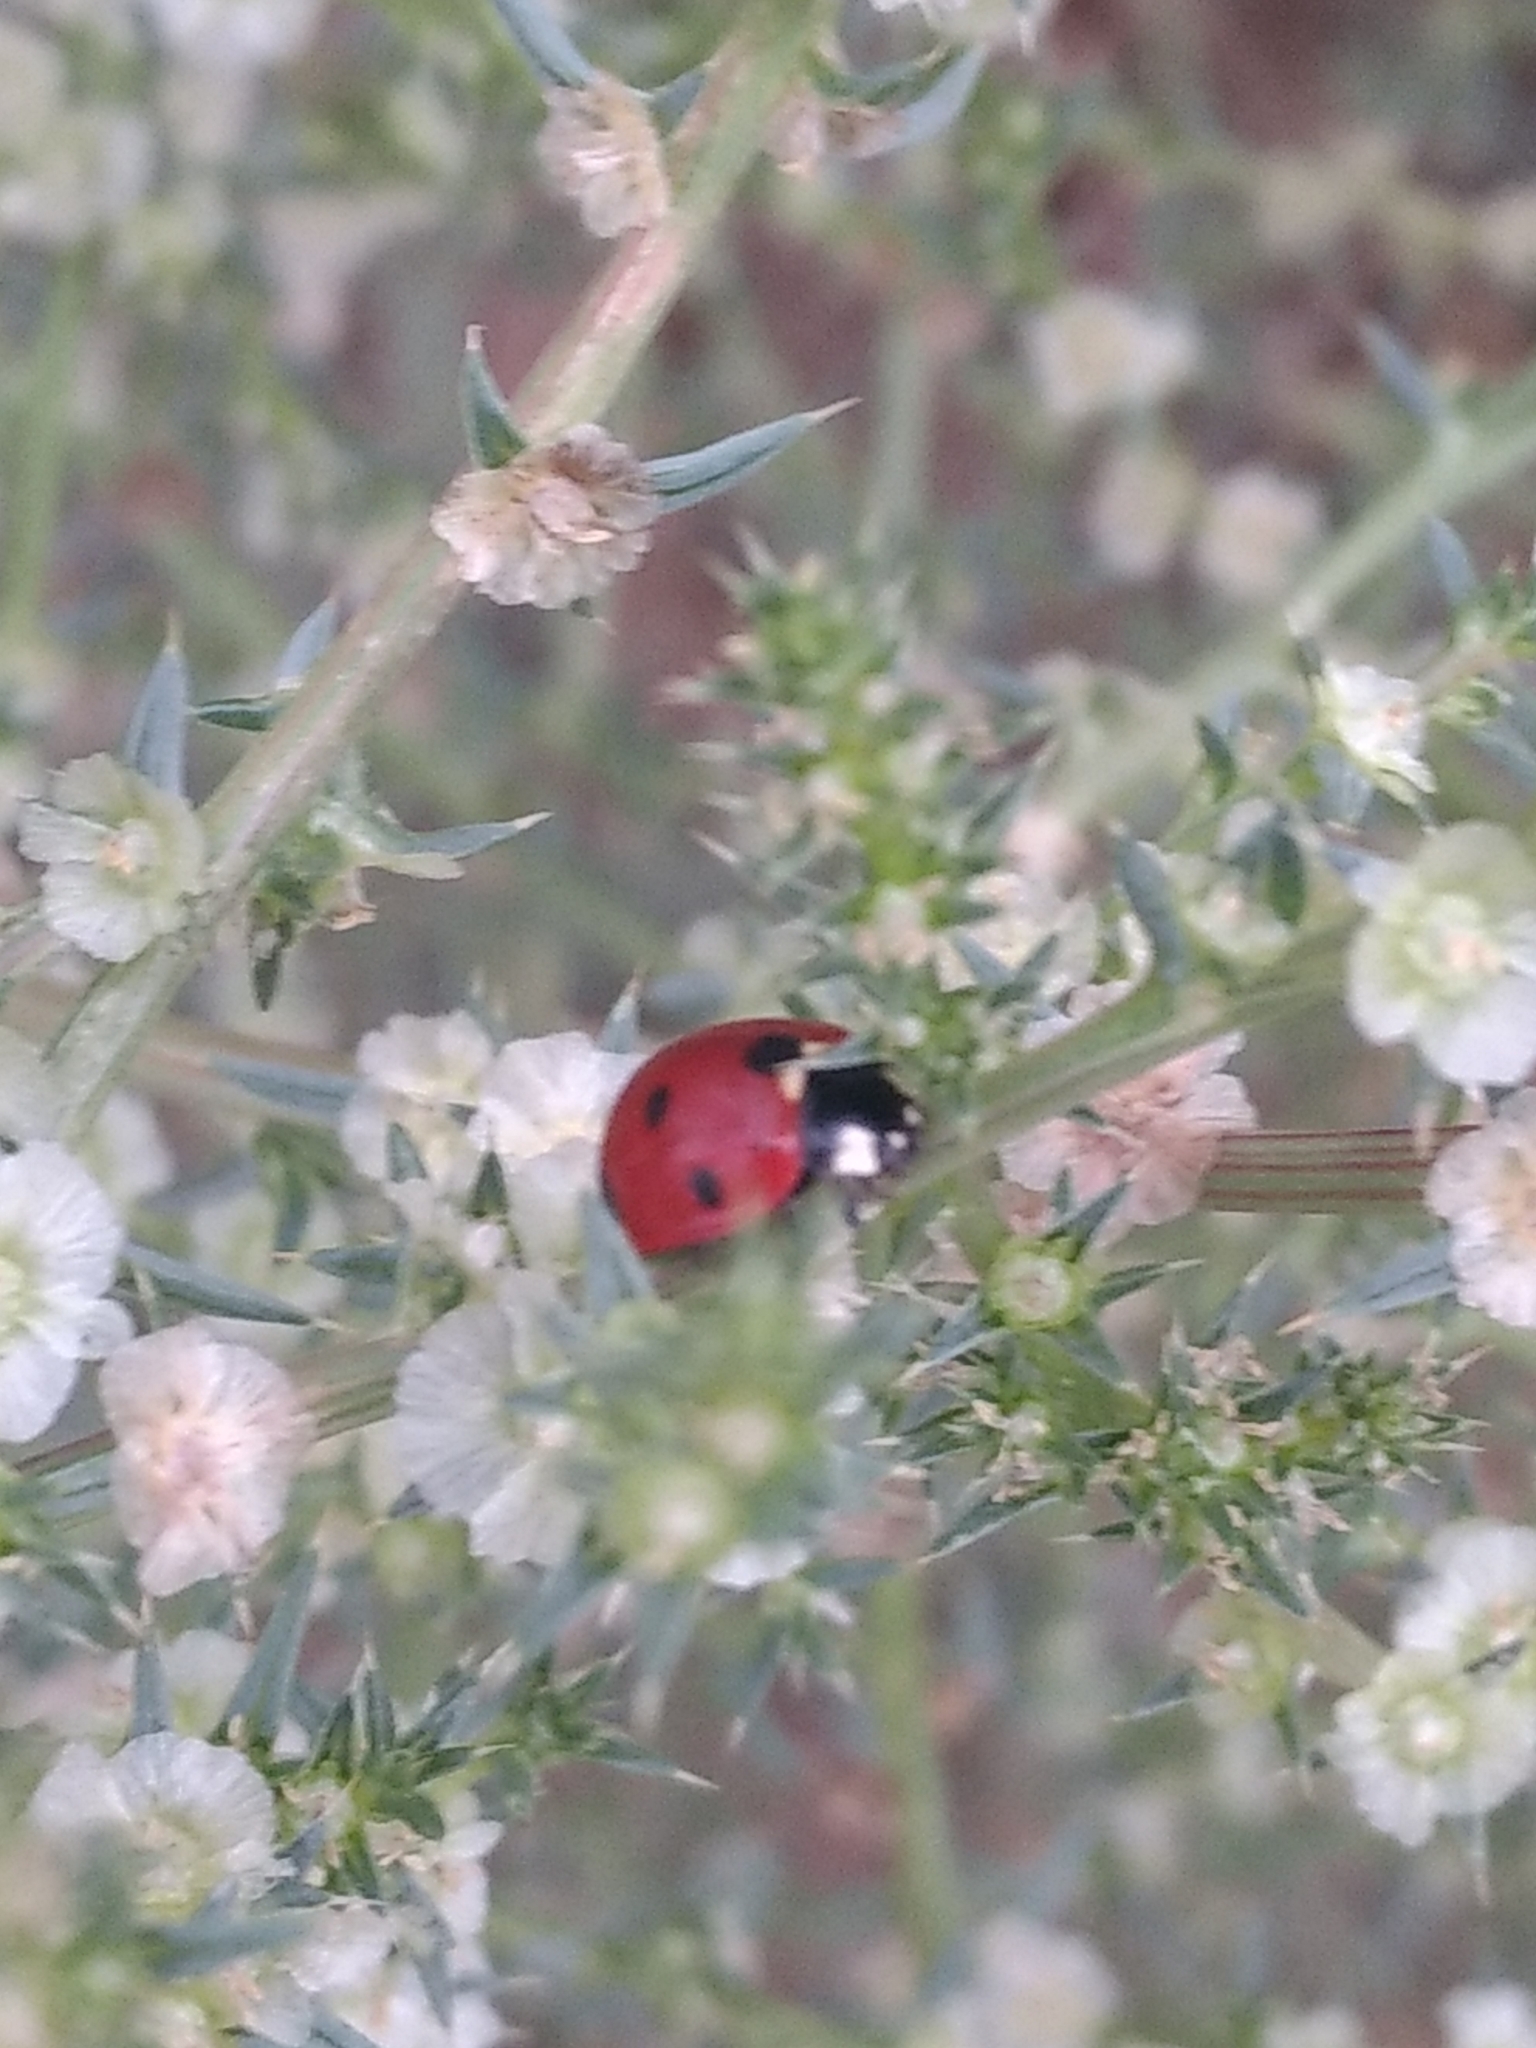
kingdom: Animalia
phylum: Arthropoda
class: Insecta
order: Coleoptera
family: Coccinellidae
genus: Coccinella
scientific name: Coccinella septempunctata
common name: Sevenspotted lady beetle
